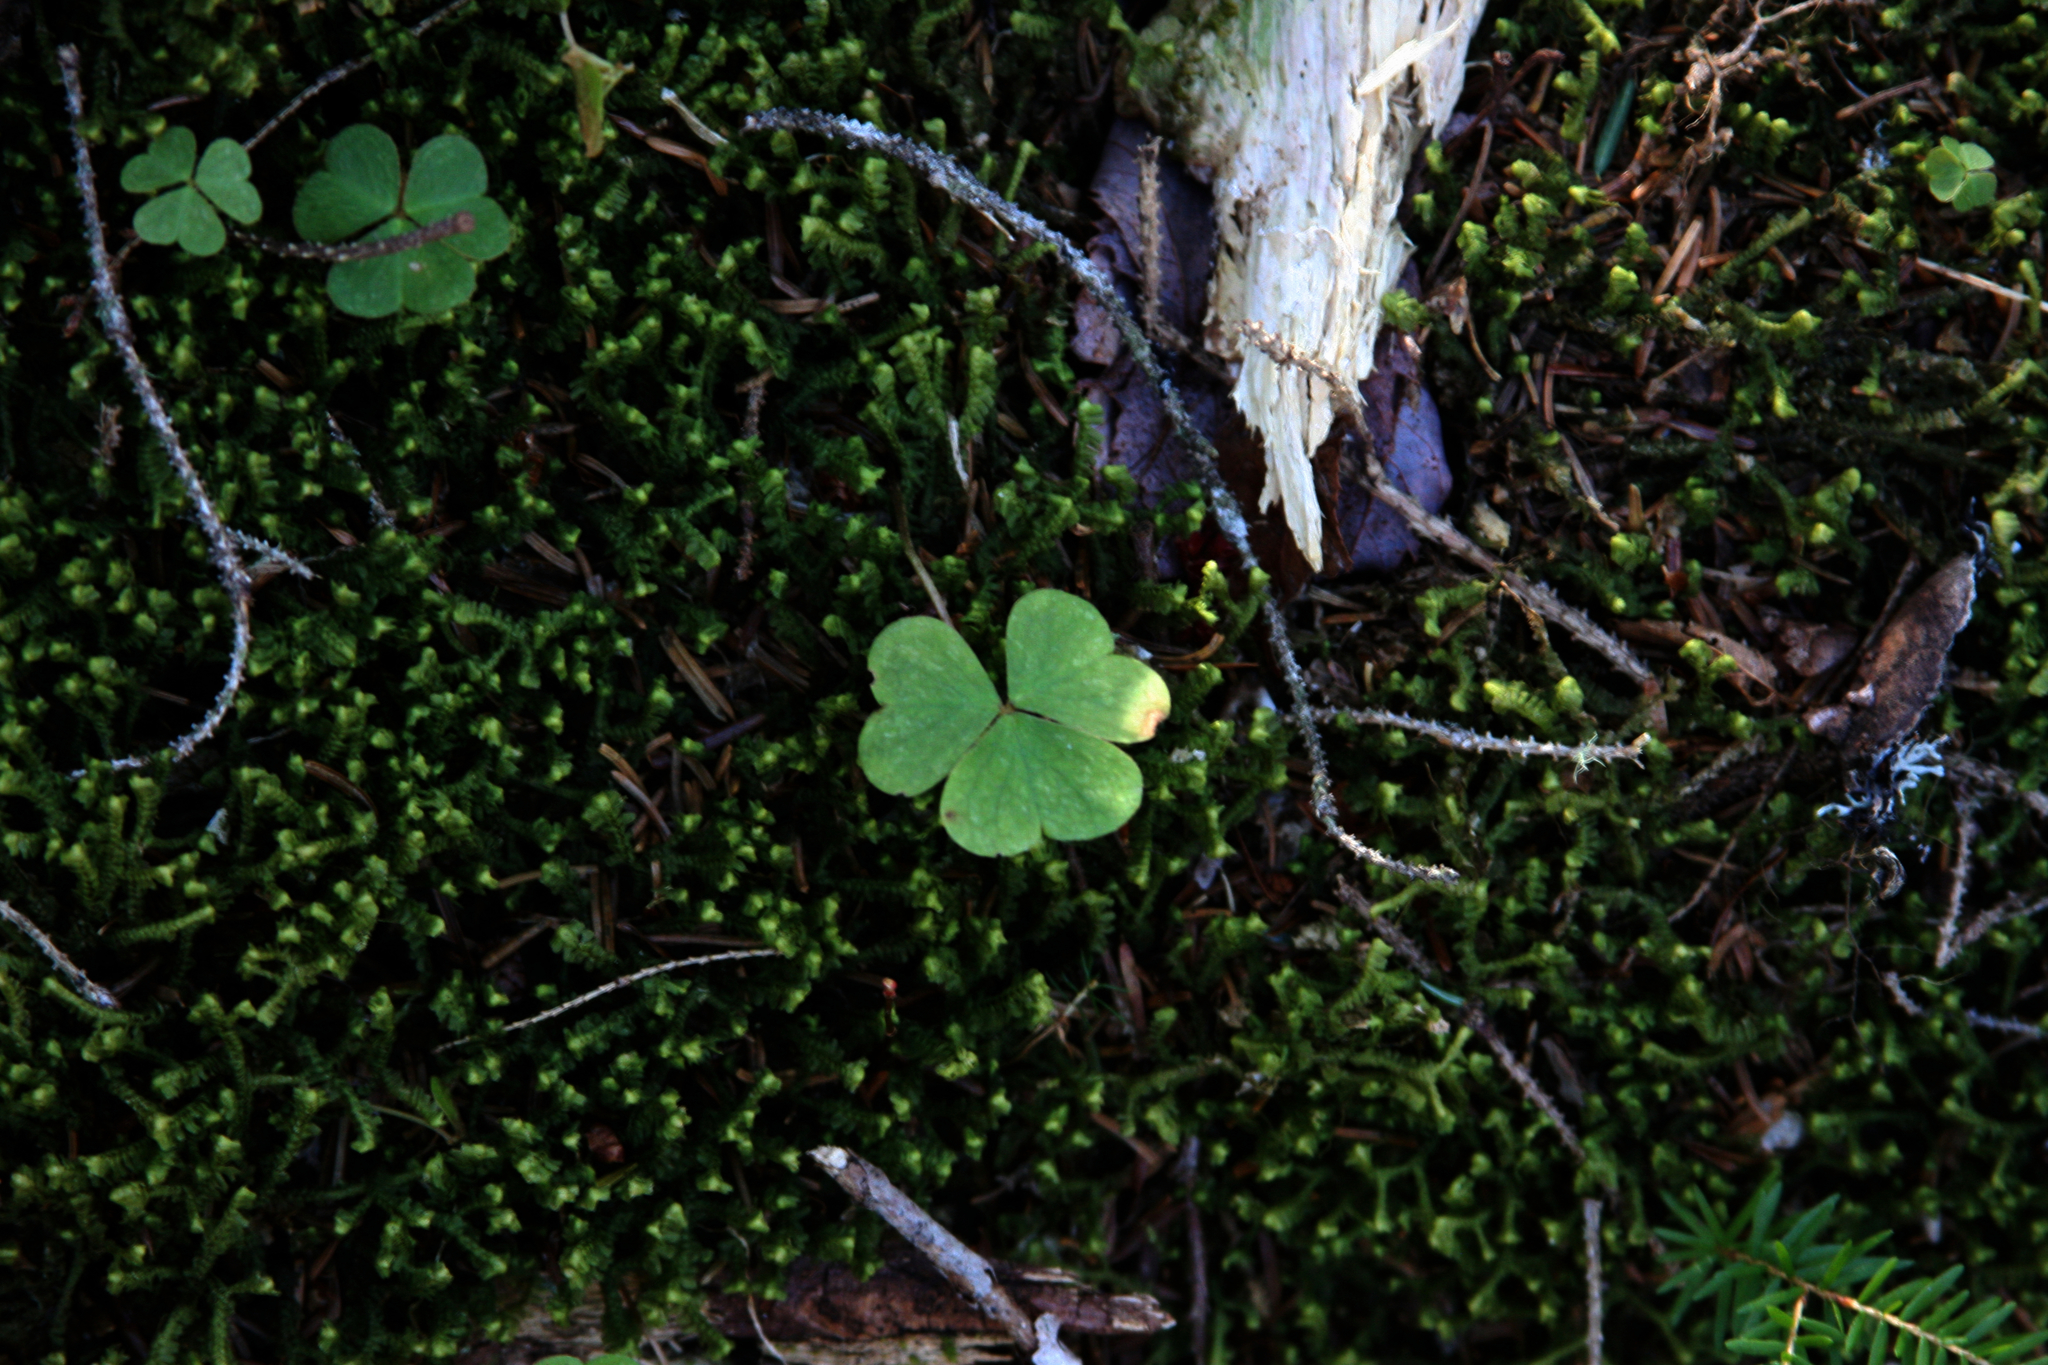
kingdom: Plantae
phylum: Tracheophyta
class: Magnoliopsida
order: Oxalidales
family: Oxalidaceae
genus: Oxalis
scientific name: Oxalis montana
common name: American wood-sorrel
